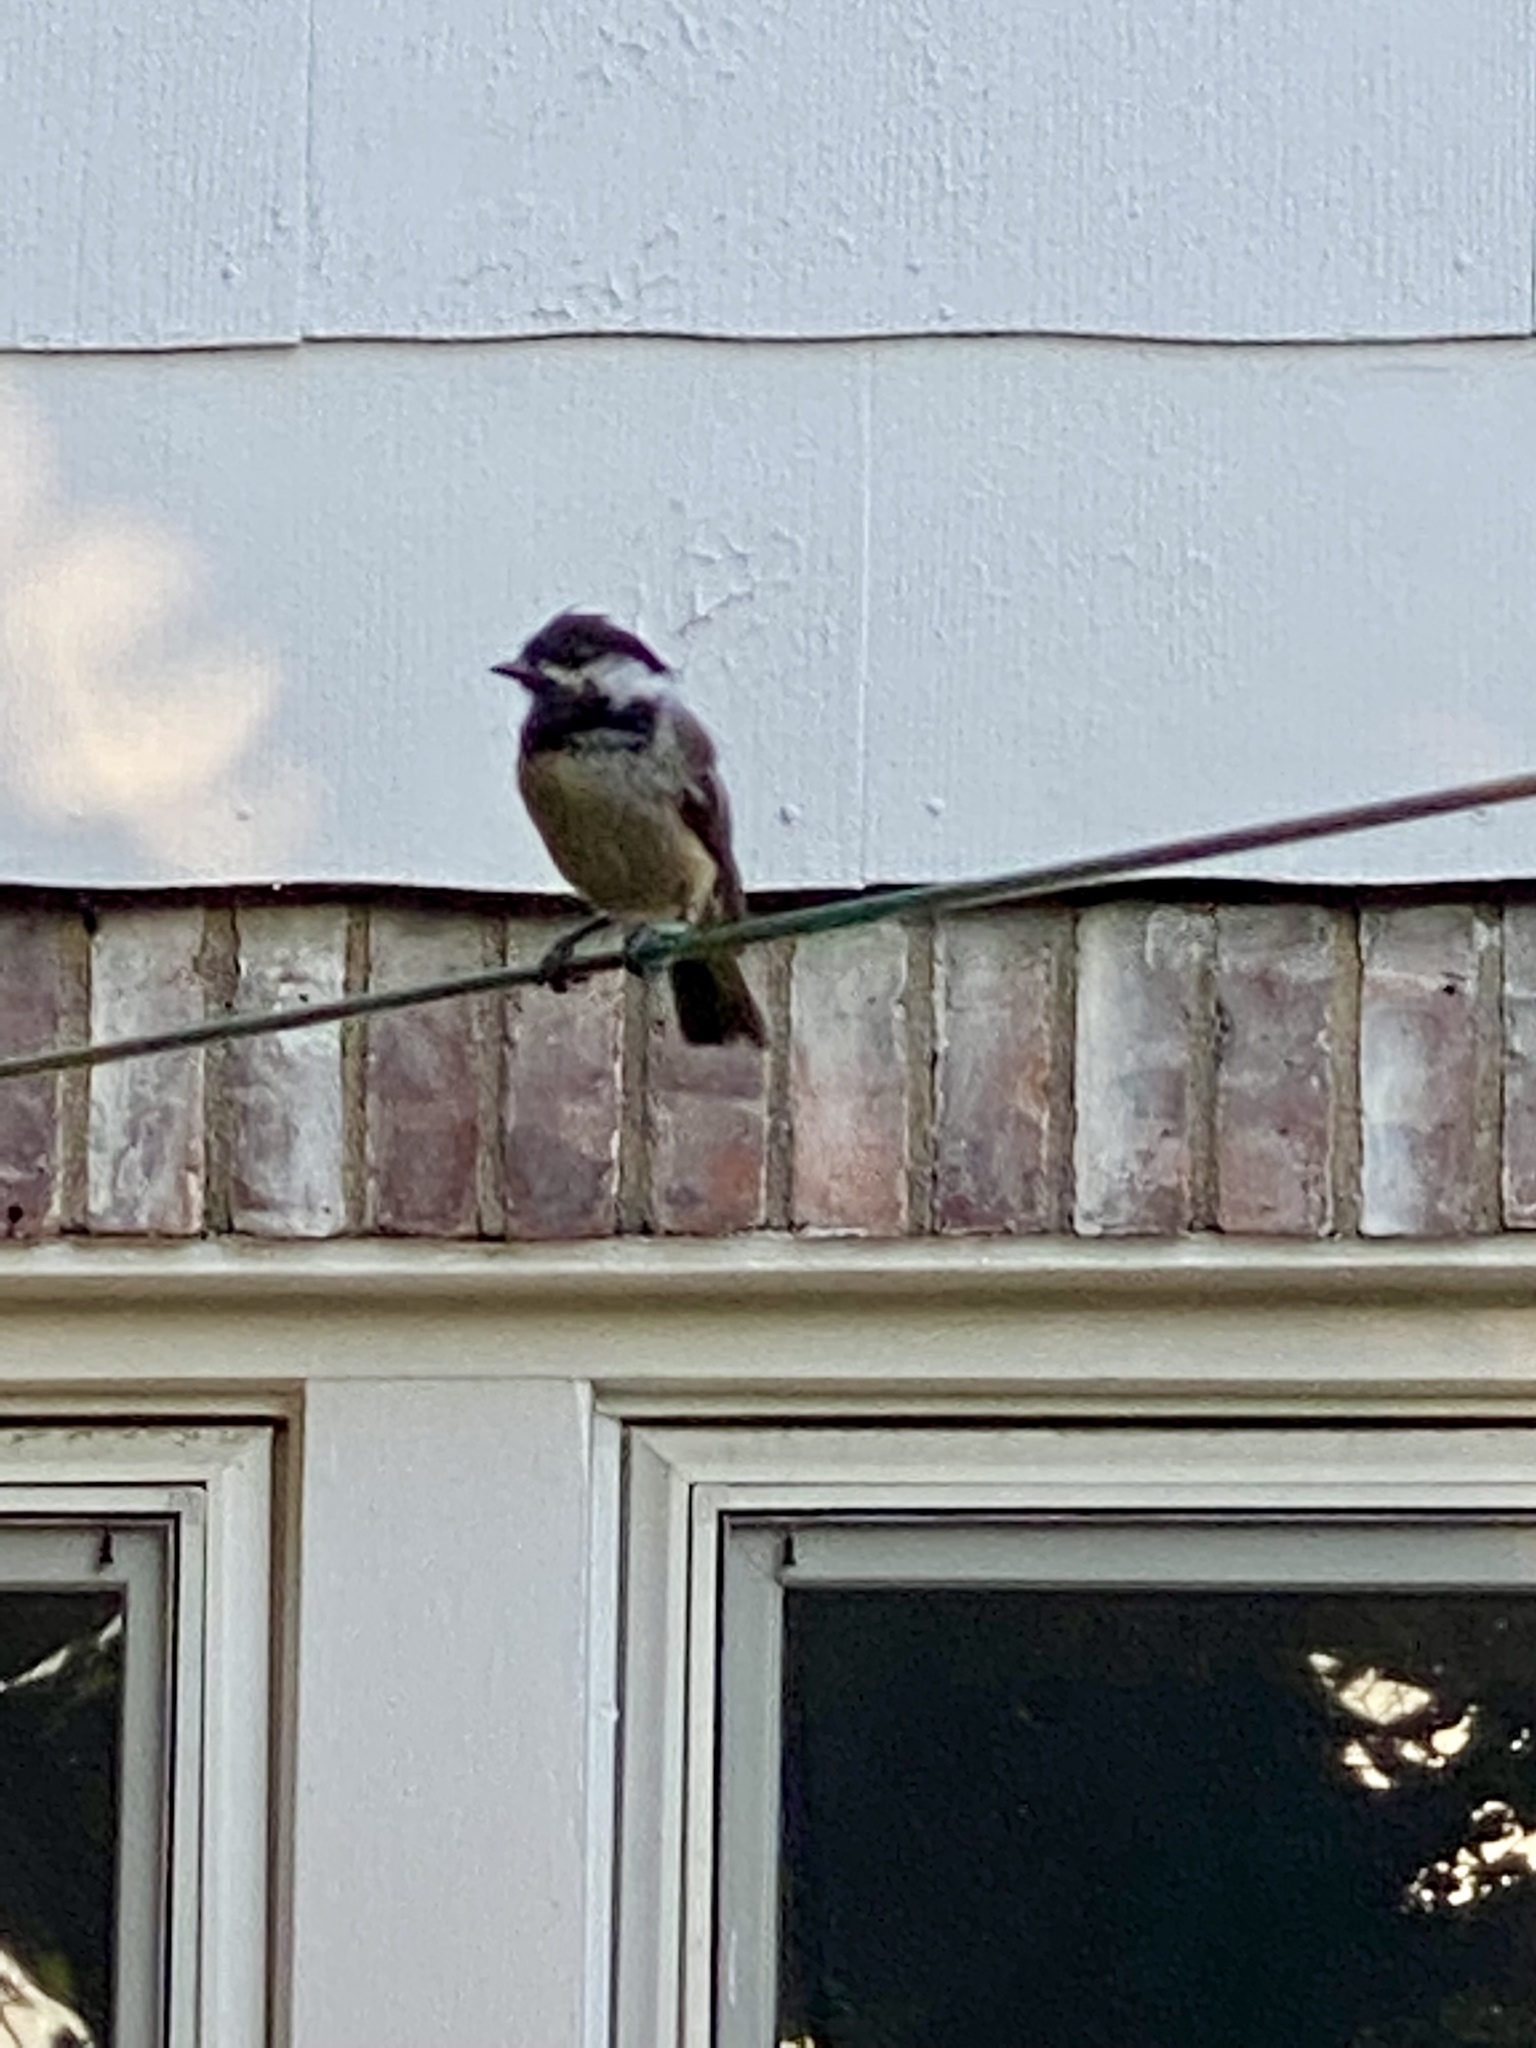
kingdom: Animalia
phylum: Chordata
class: Aves
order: Passeriformes
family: Paridae
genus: Poecile
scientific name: Poecile atricapillus
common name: Black-capped chickadee
